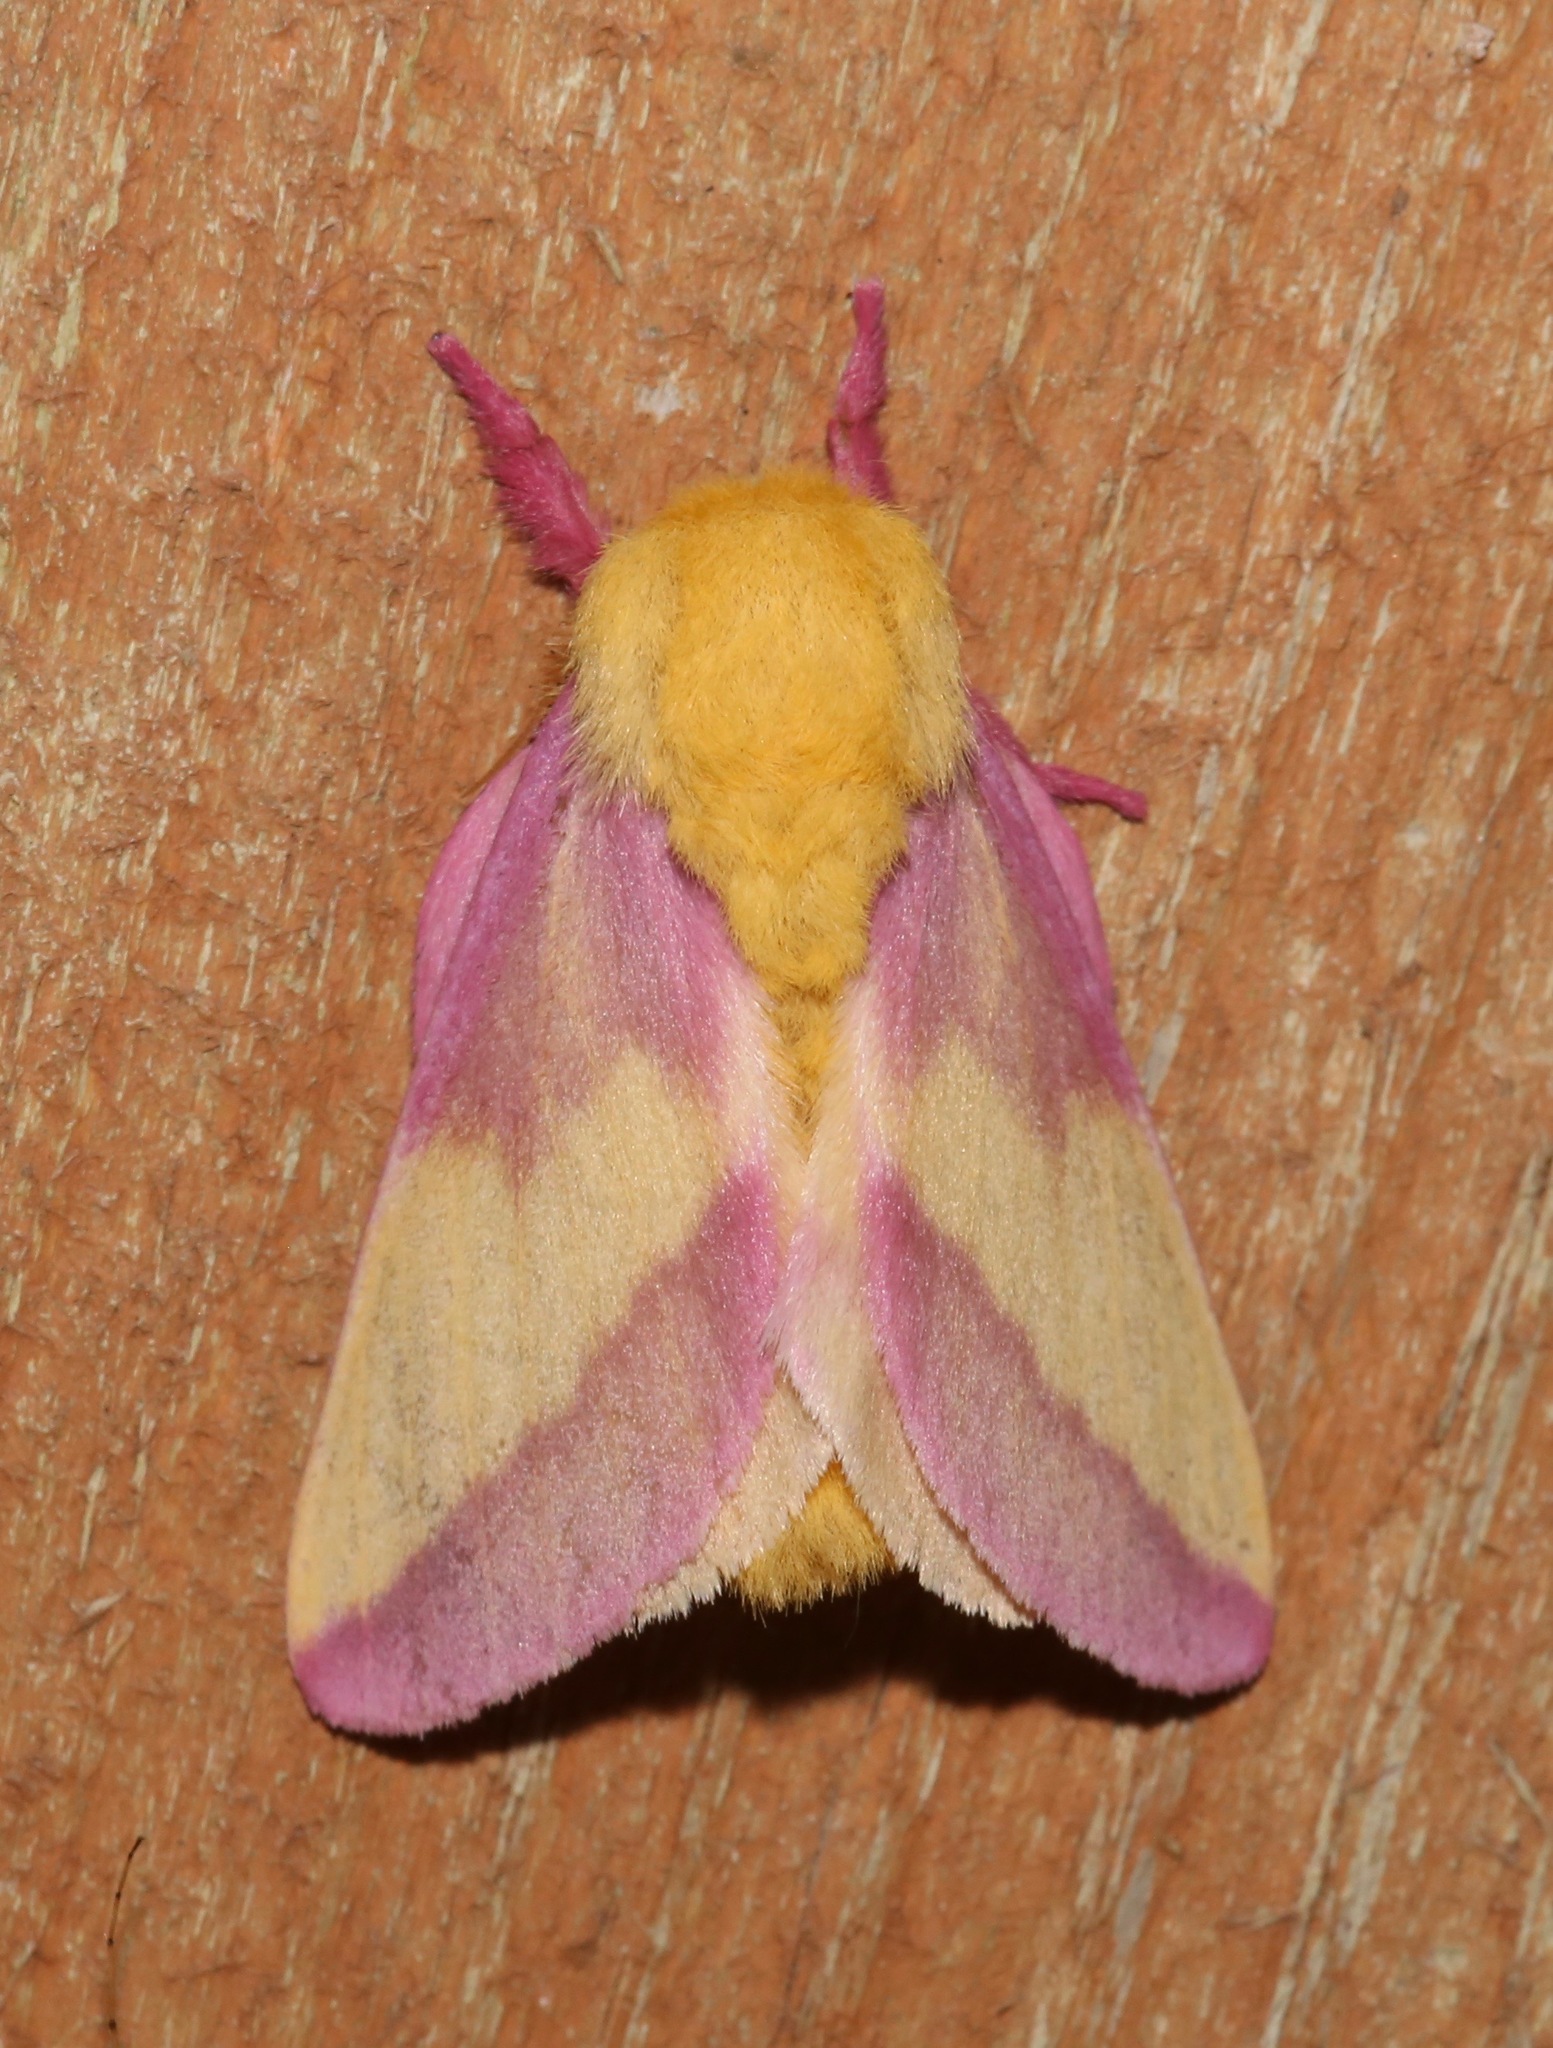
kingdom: Animalia
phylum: Arthropoda
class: Insecta
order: Lepidoptera
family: Saturniidae
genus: Dryocampa
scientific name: Dryocampa rubicunda
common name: Rosy maple moth
